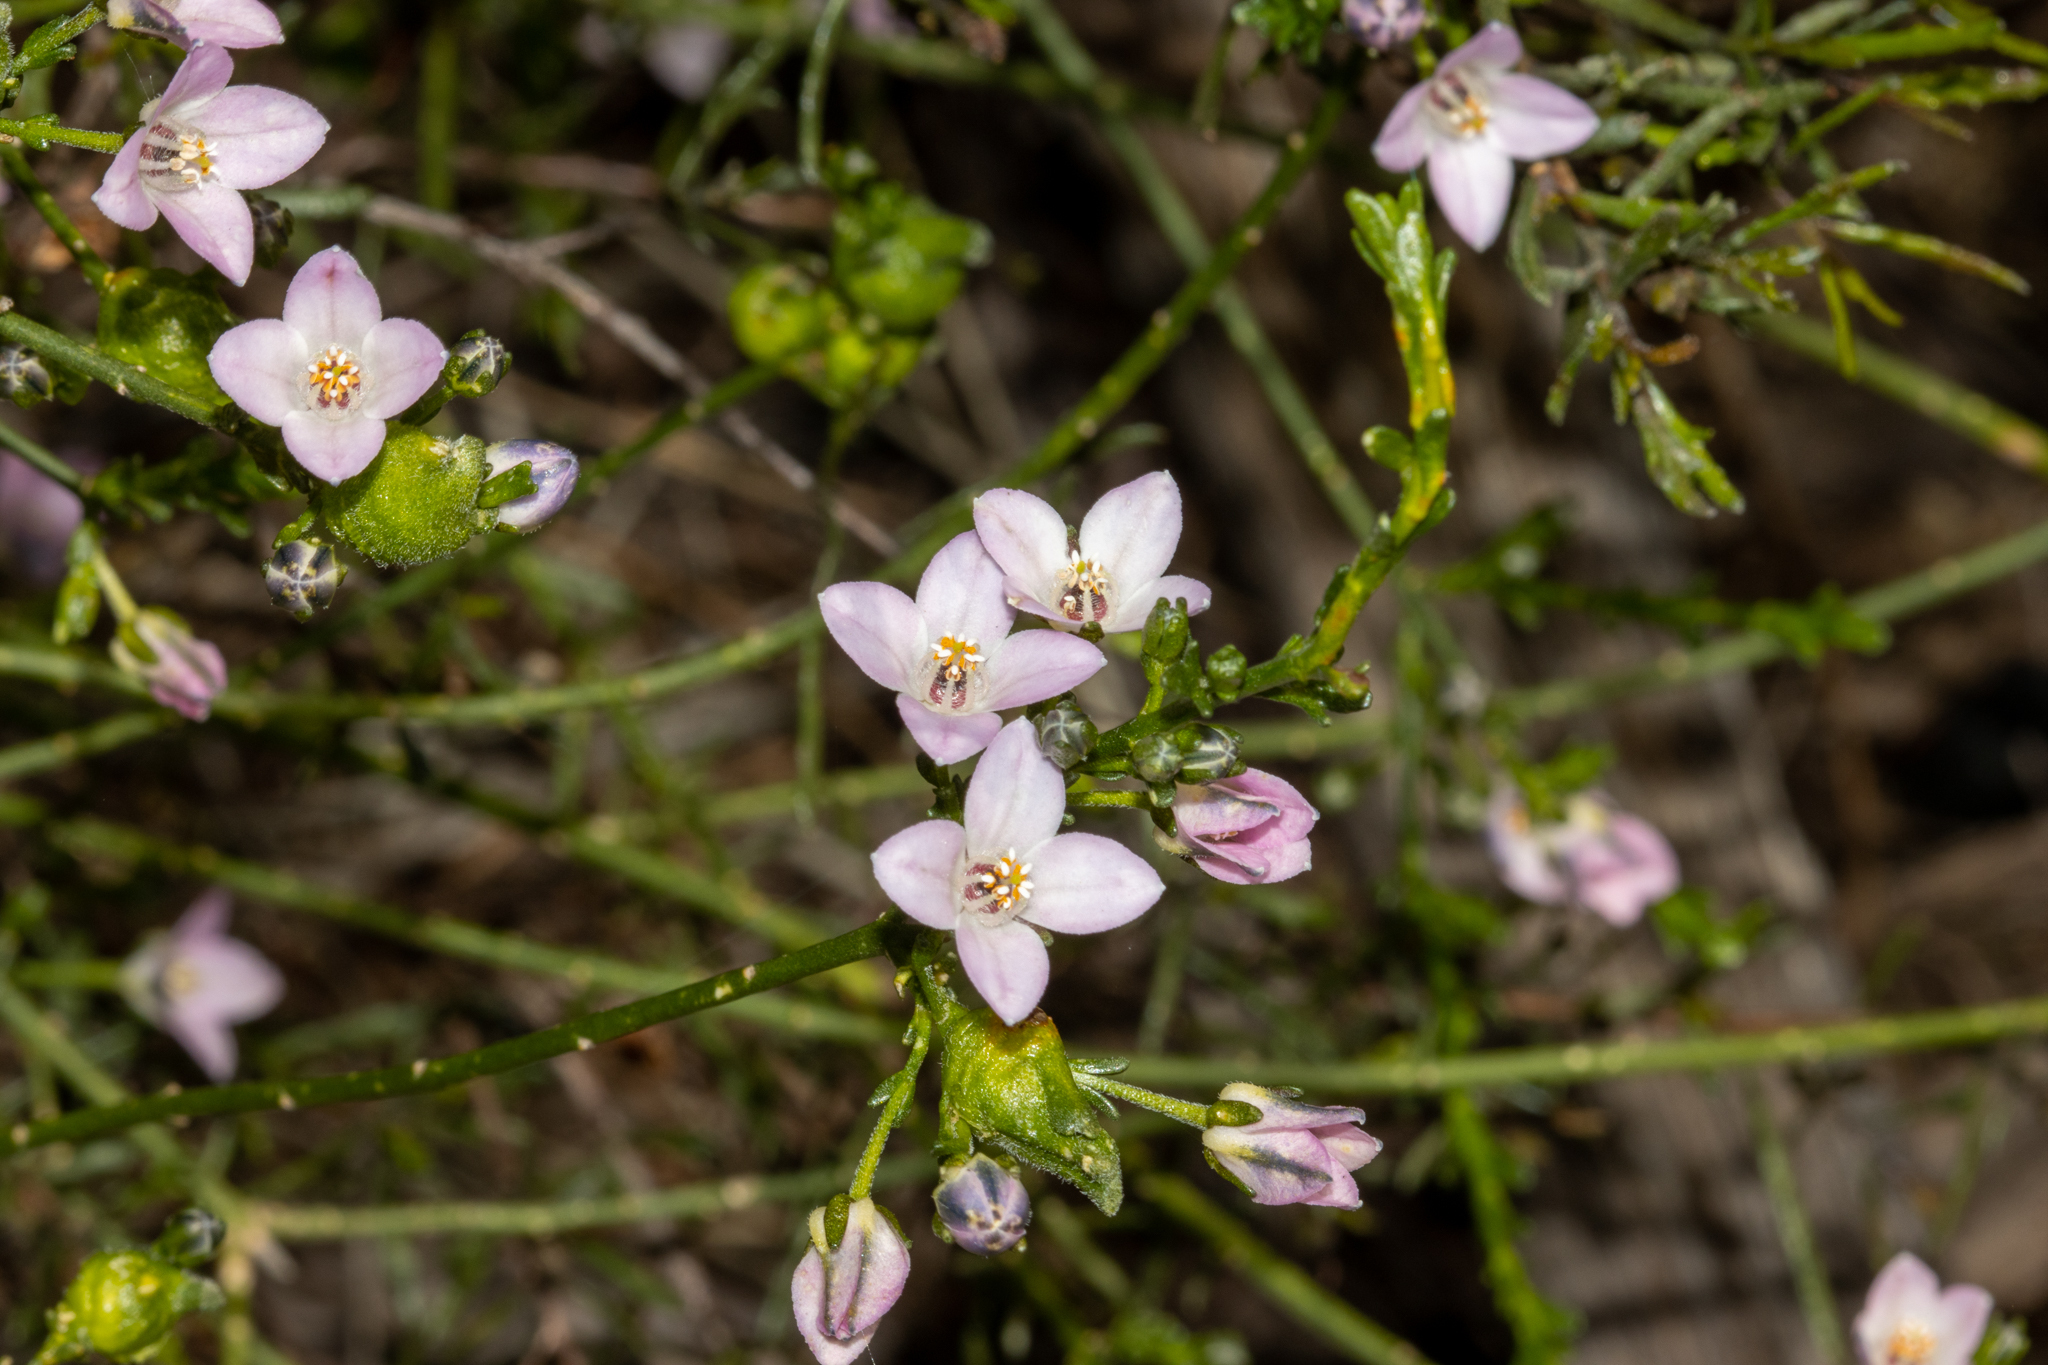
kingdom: Plantae
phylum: Tracheophyta
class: Magnoliopsida
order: Sapindales
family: Rutaceae
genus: Cyanothamnus
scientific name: Cyanothamnus coerulescens
